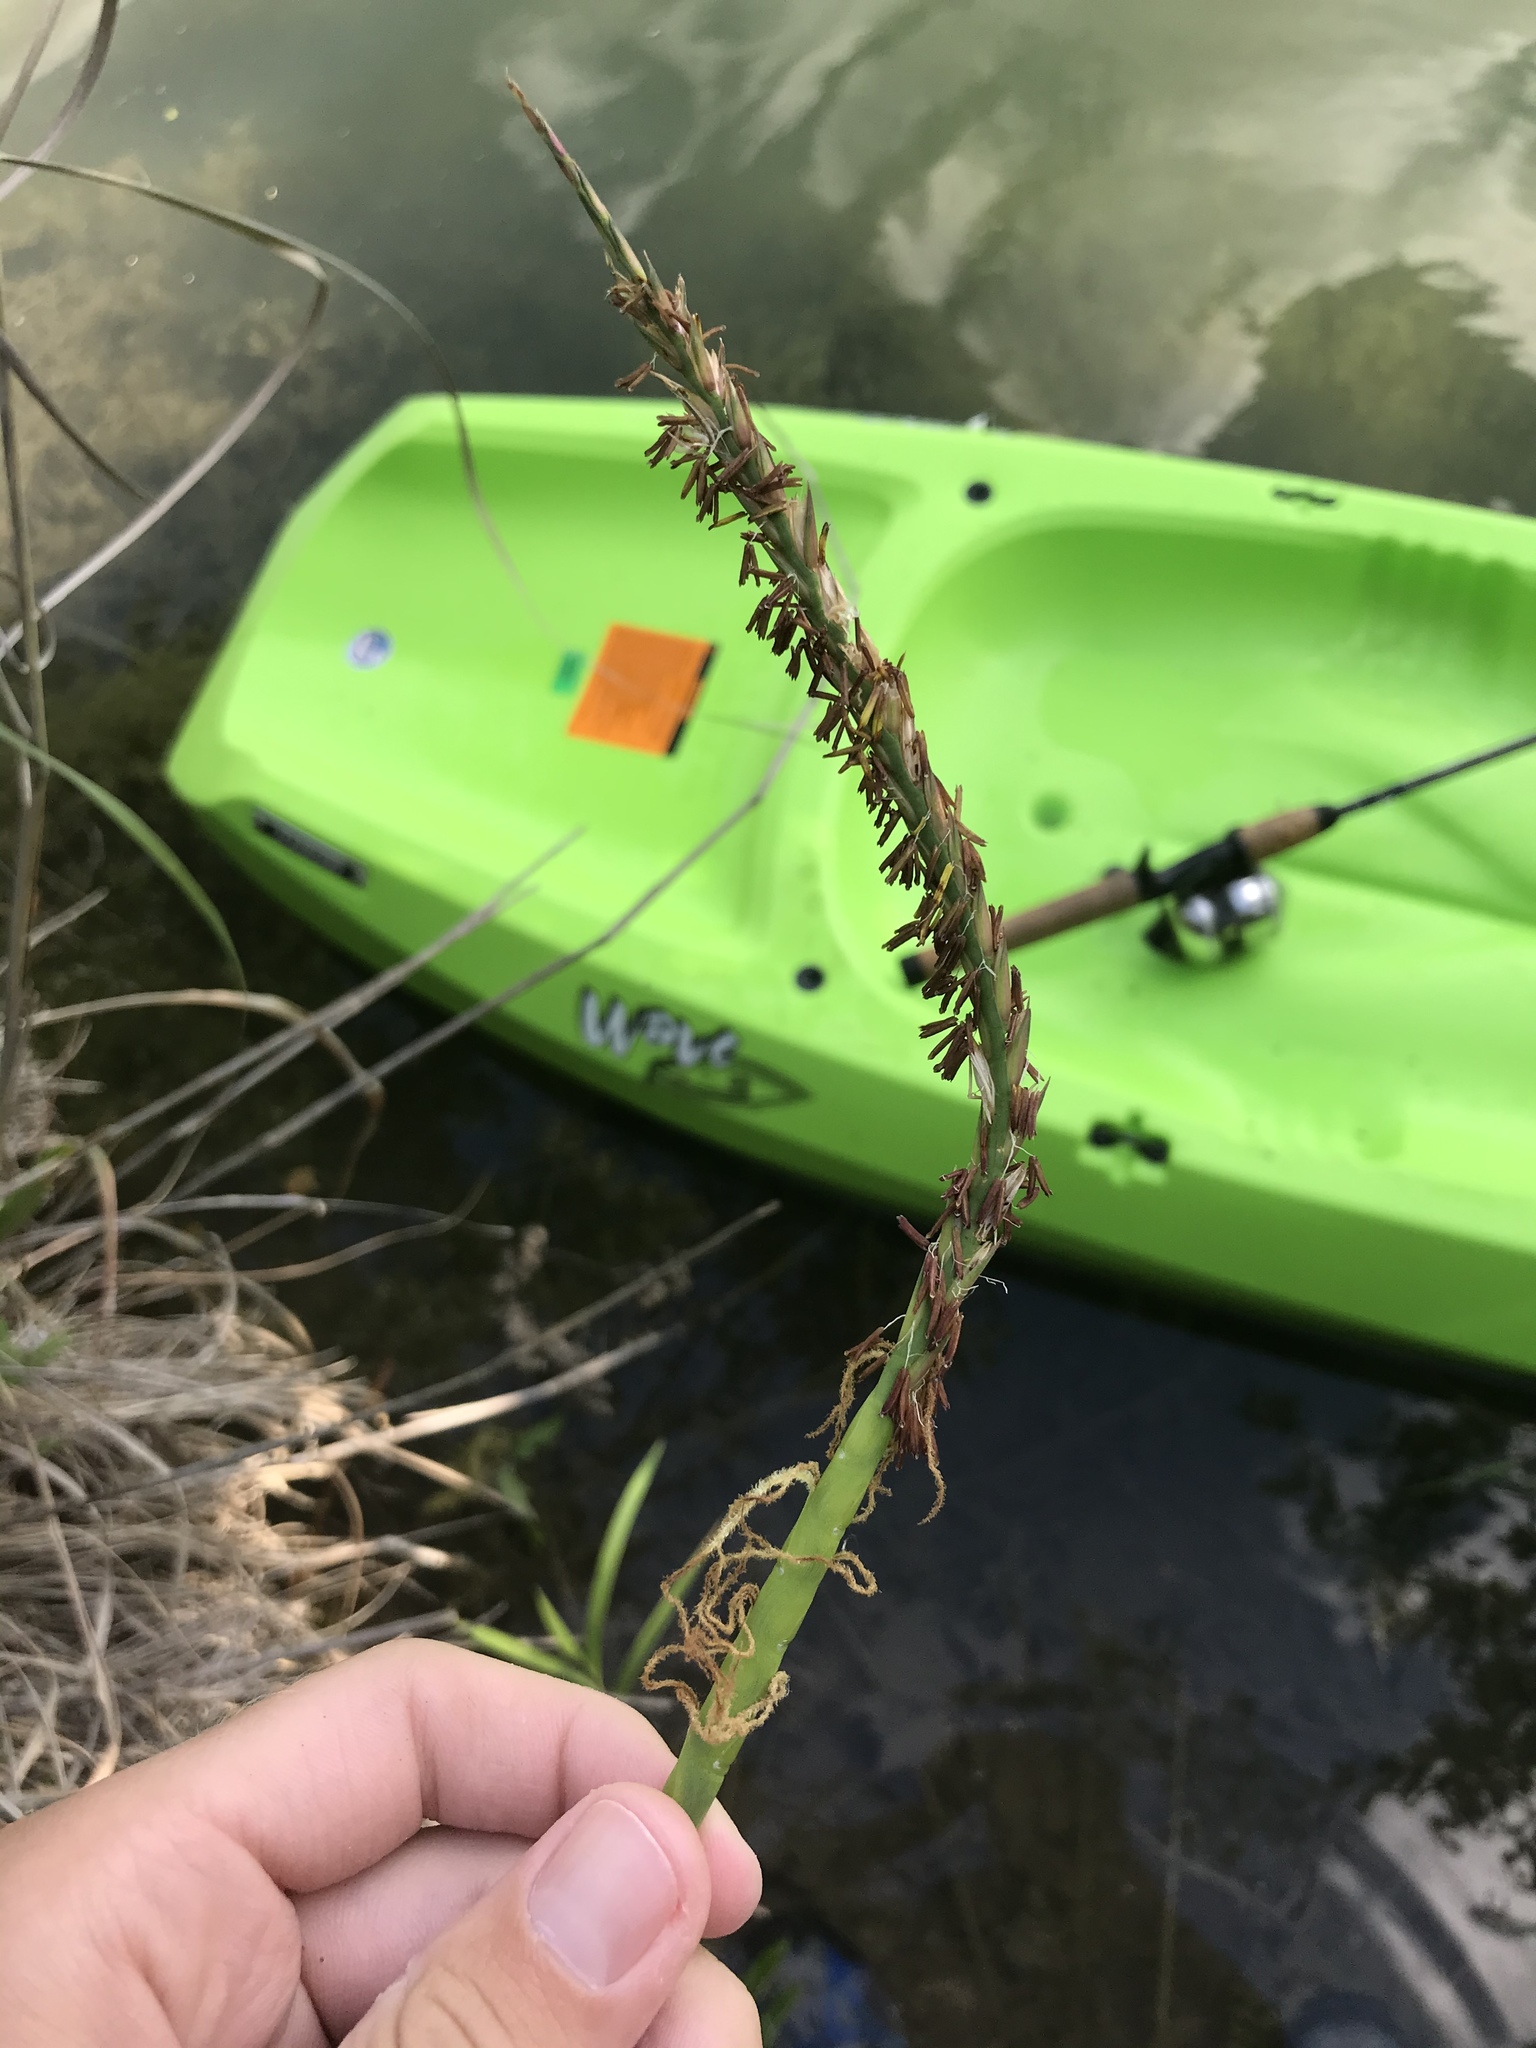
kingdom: Plantae
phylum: Tracheophyta
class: Liliopsida
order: Poales
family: Poaceae
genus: Tripsacum
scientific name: Tripsacum dactyloides
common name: Buffalo-grass
